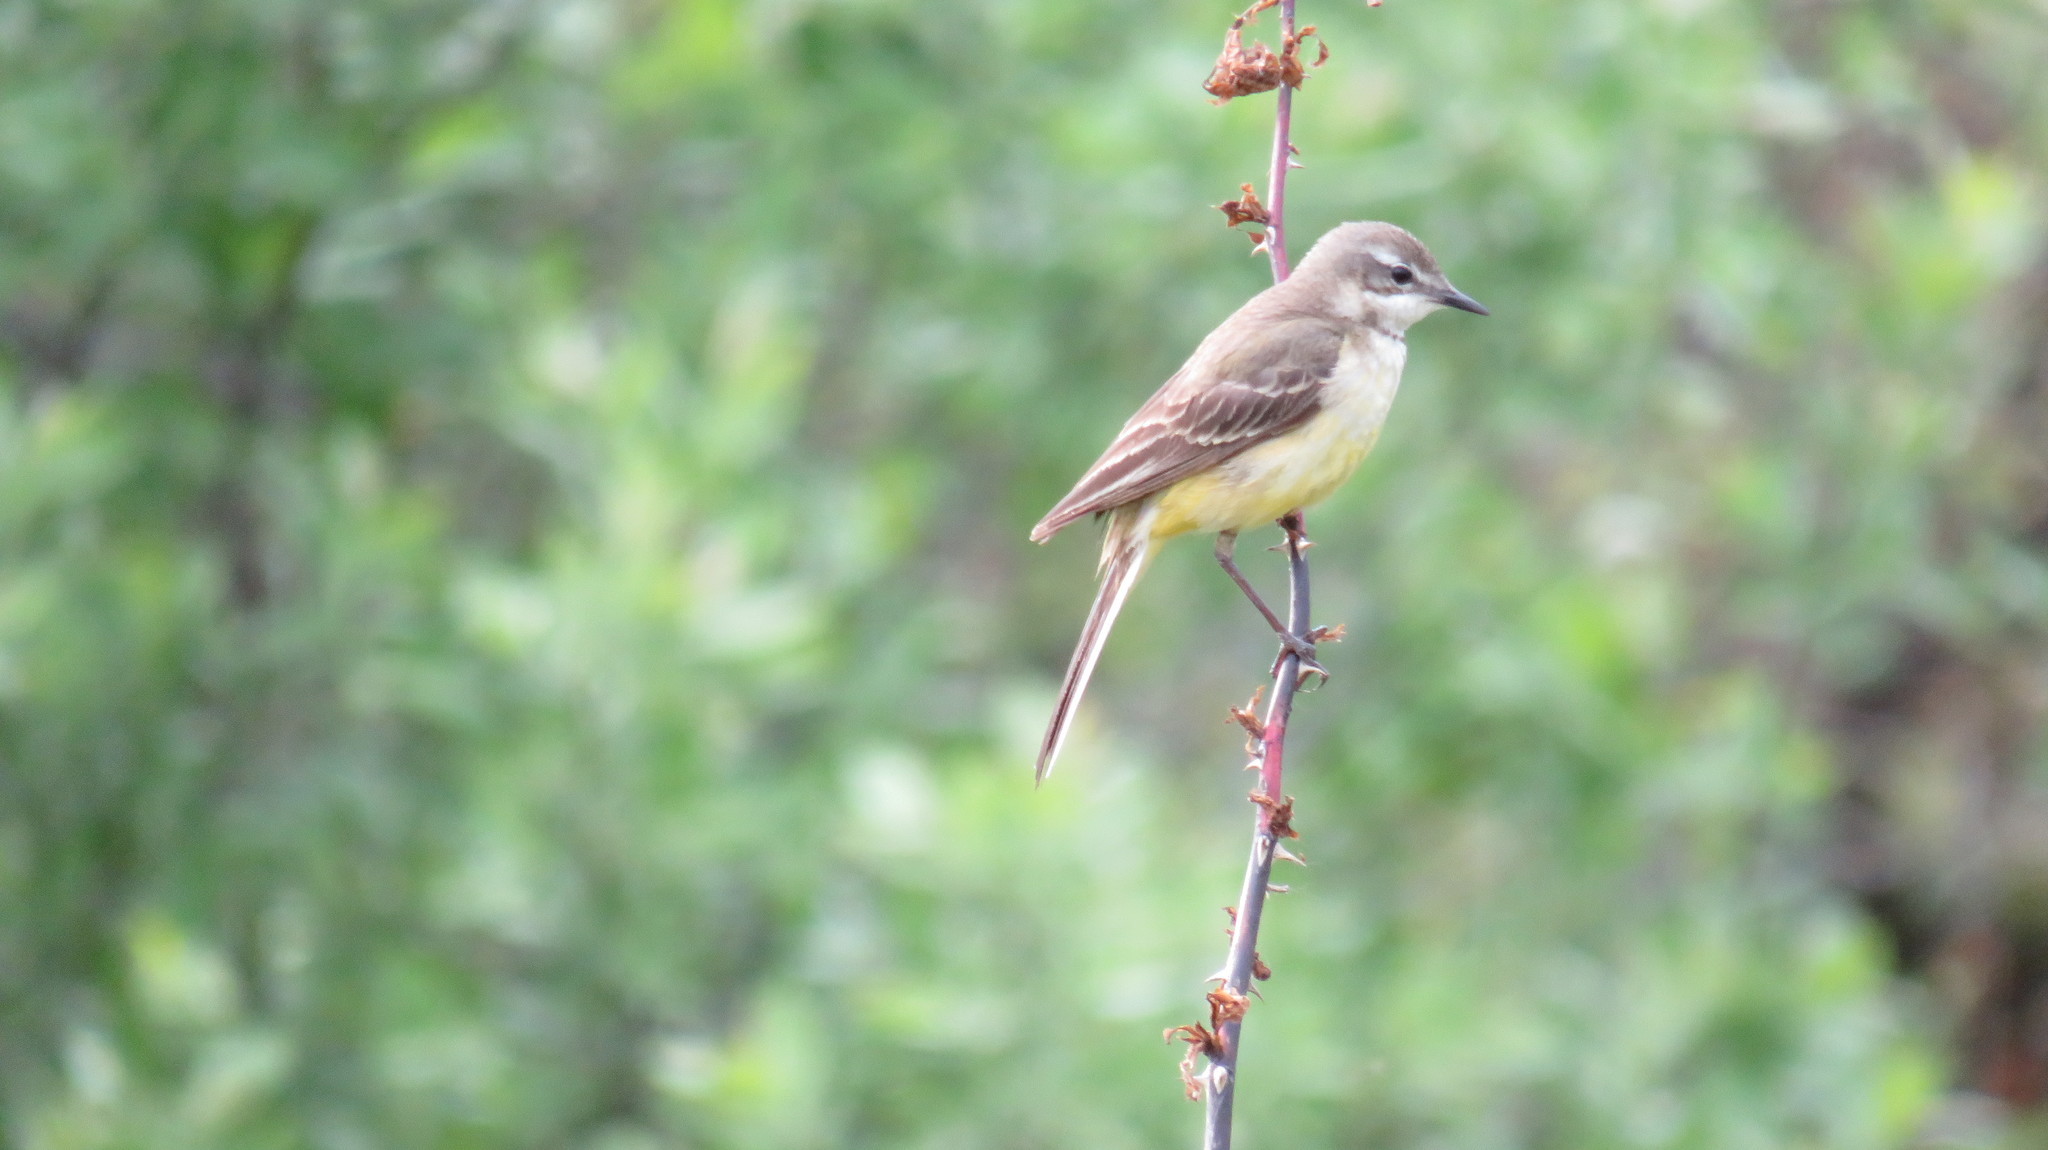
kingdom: Animalia
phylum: Chordata
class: Aves
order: Passeriformes
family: Motacillidae
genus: Motacilla
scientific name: Motacilla flava
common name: Western yellow wagtail
